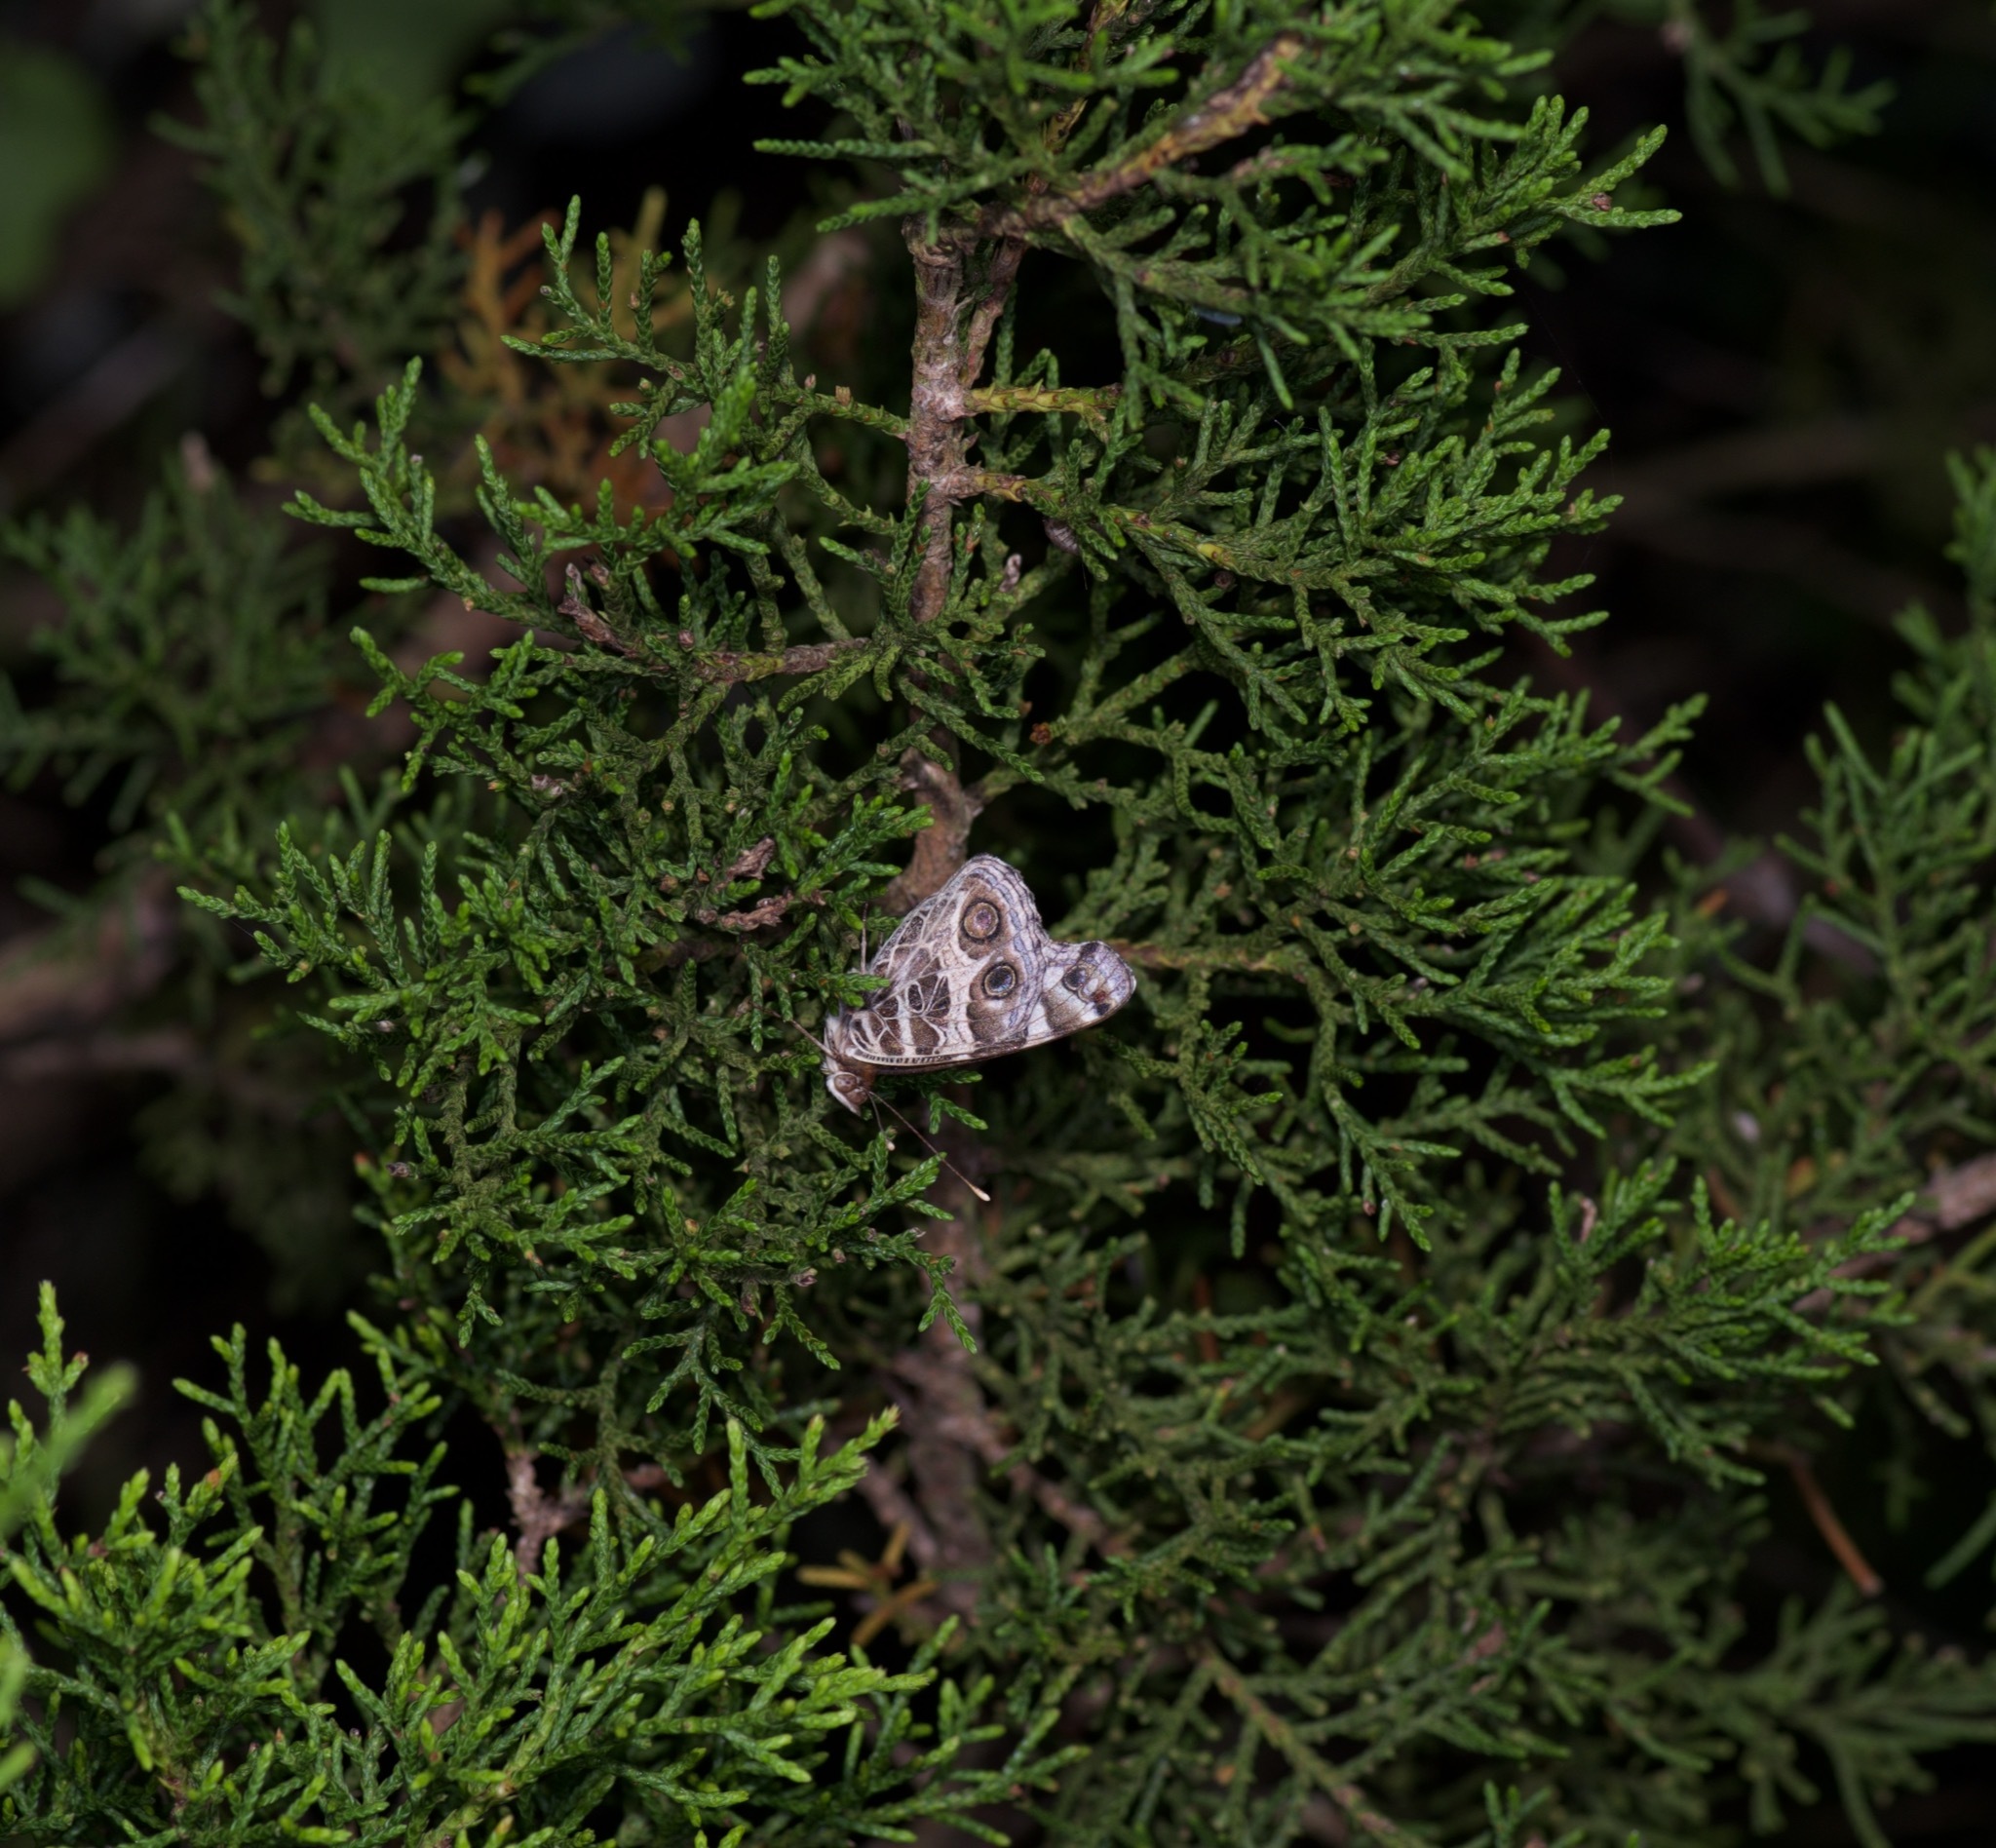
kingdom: Animalia
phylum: Arthropoda
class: Insecta
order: Lepidoptera
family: Nymphalidae
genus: Vanessa
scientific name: Vanessa virginiensis
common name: American lady
